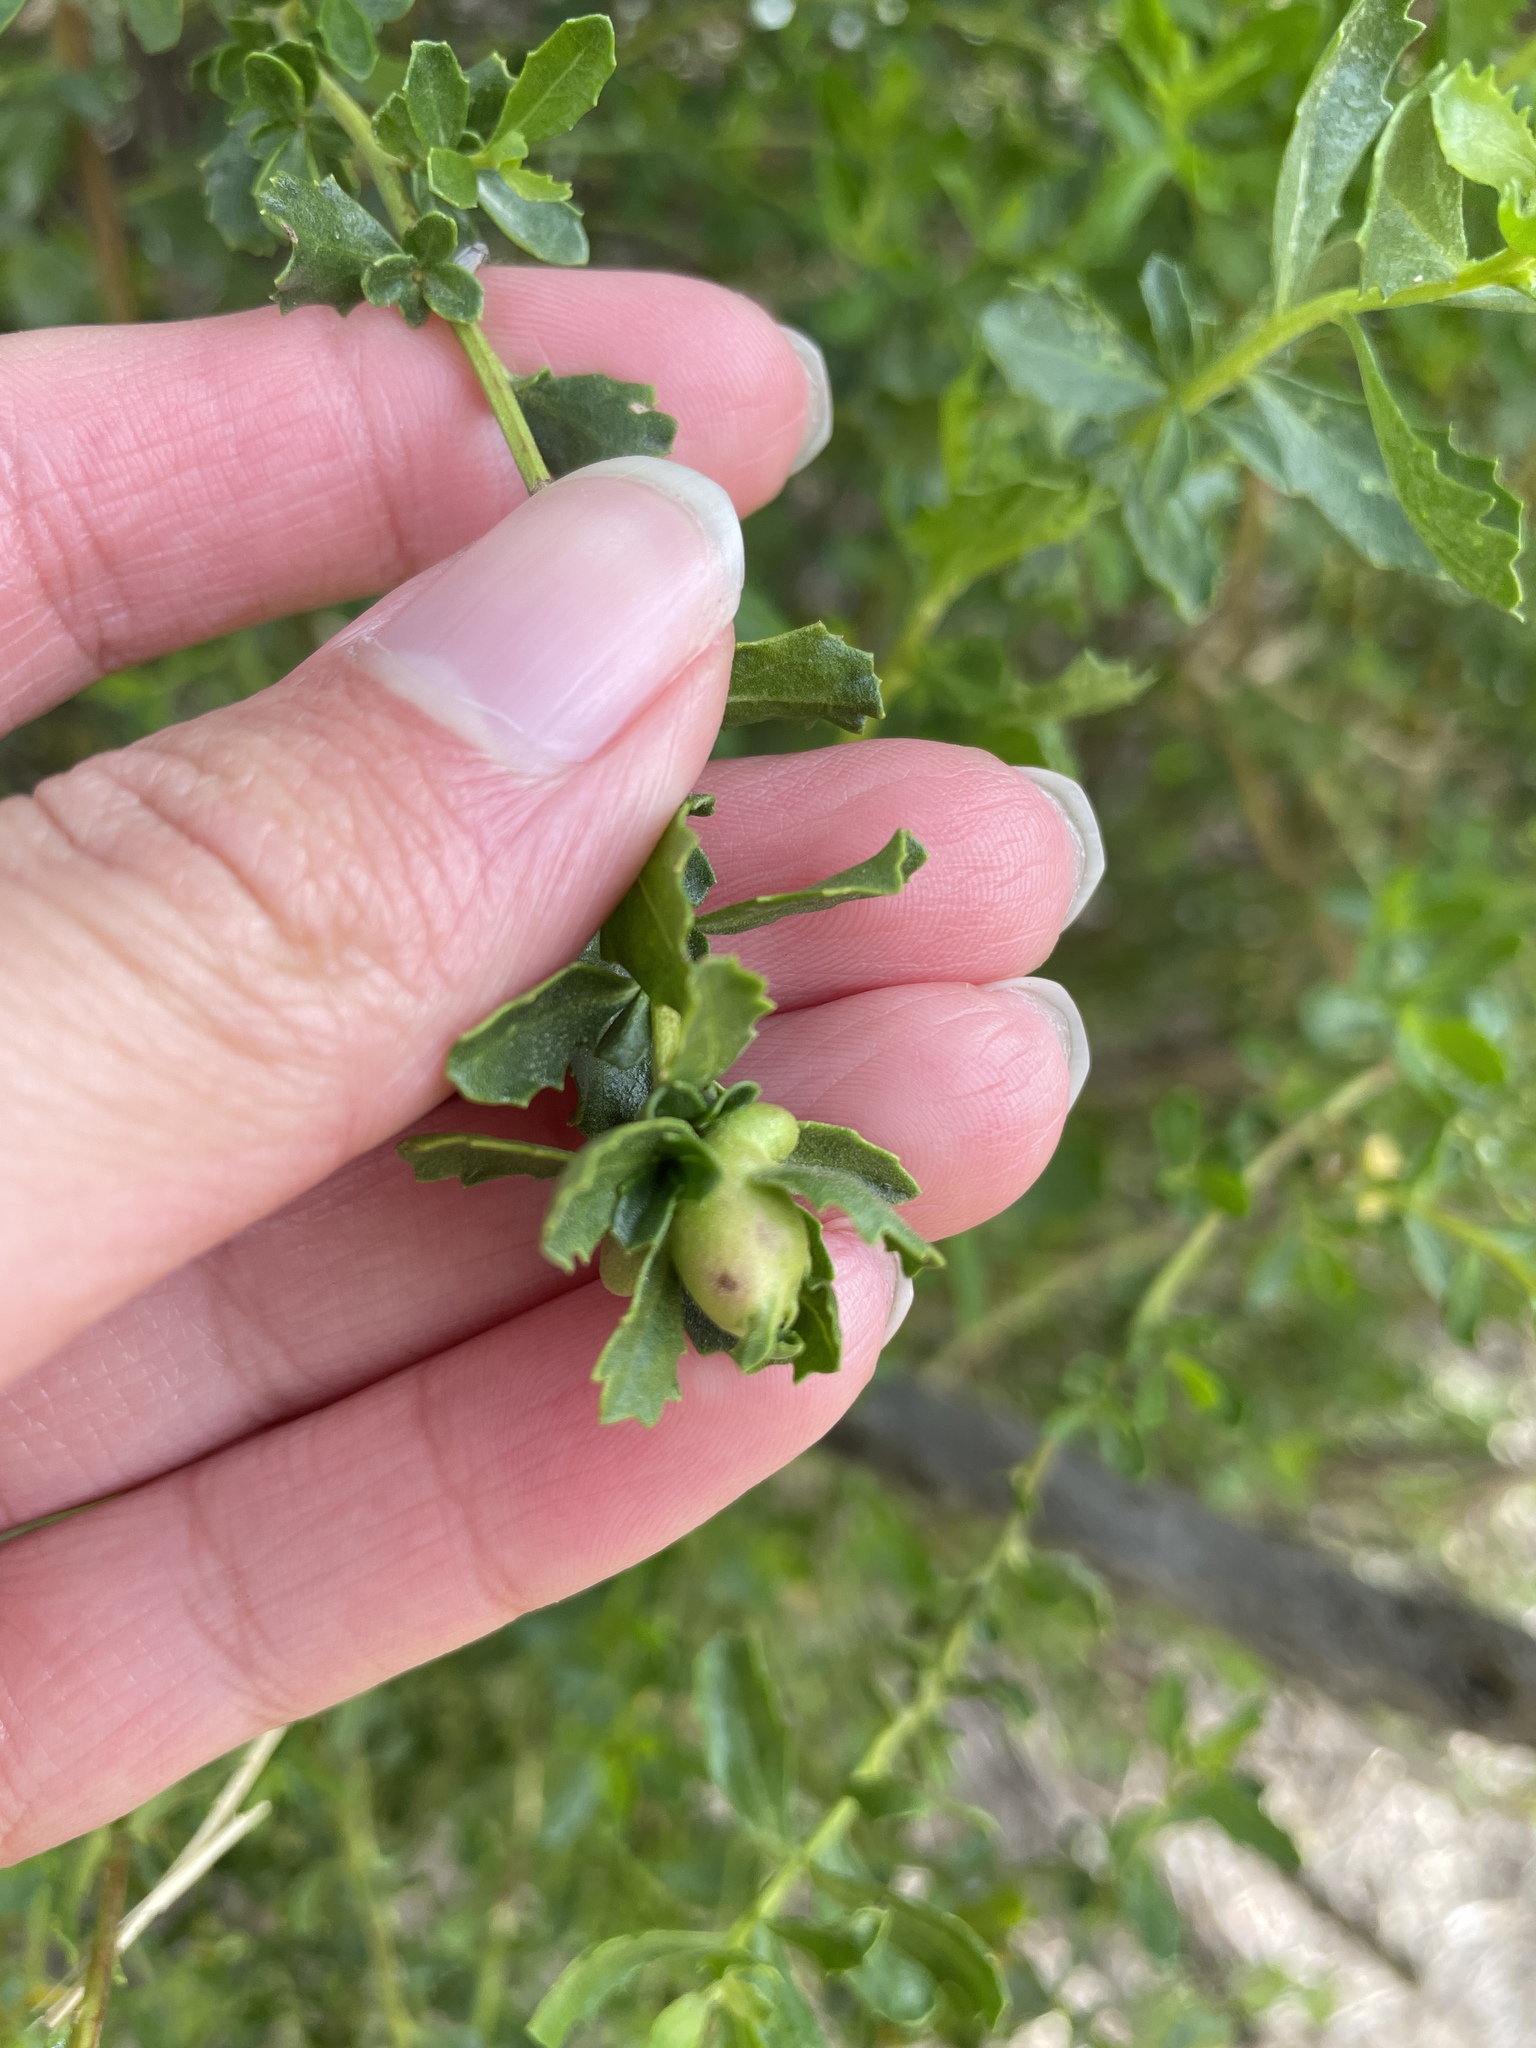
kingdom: Animalia
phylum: Arthropoda
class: Insecta
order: Diptera
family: Cecidomyiidae
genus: Rhopalomyia
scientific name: Rhopalomyia californica
